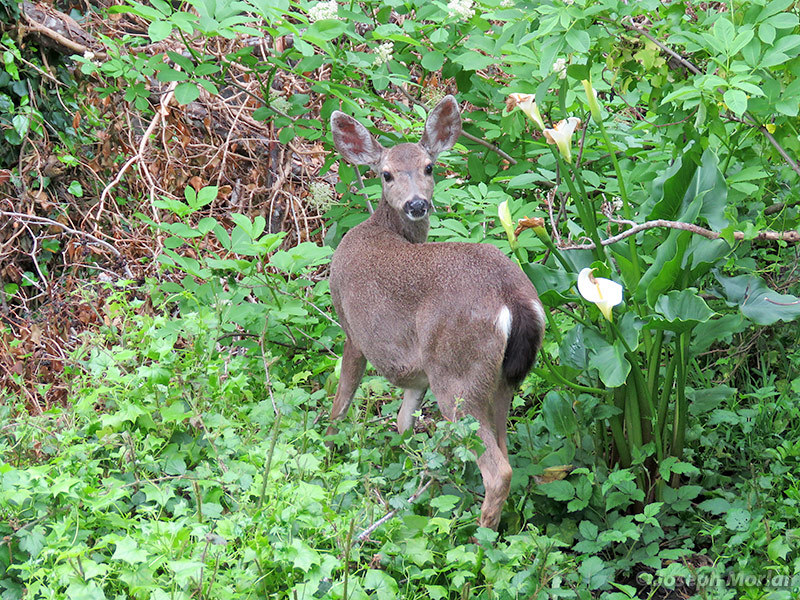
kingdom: Animalia
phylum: Chordata
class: Mammalia
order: Artiodactyla
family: Cervidae
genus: Odocoileus
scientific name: Odocoileus hemionus
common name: Mule deer
